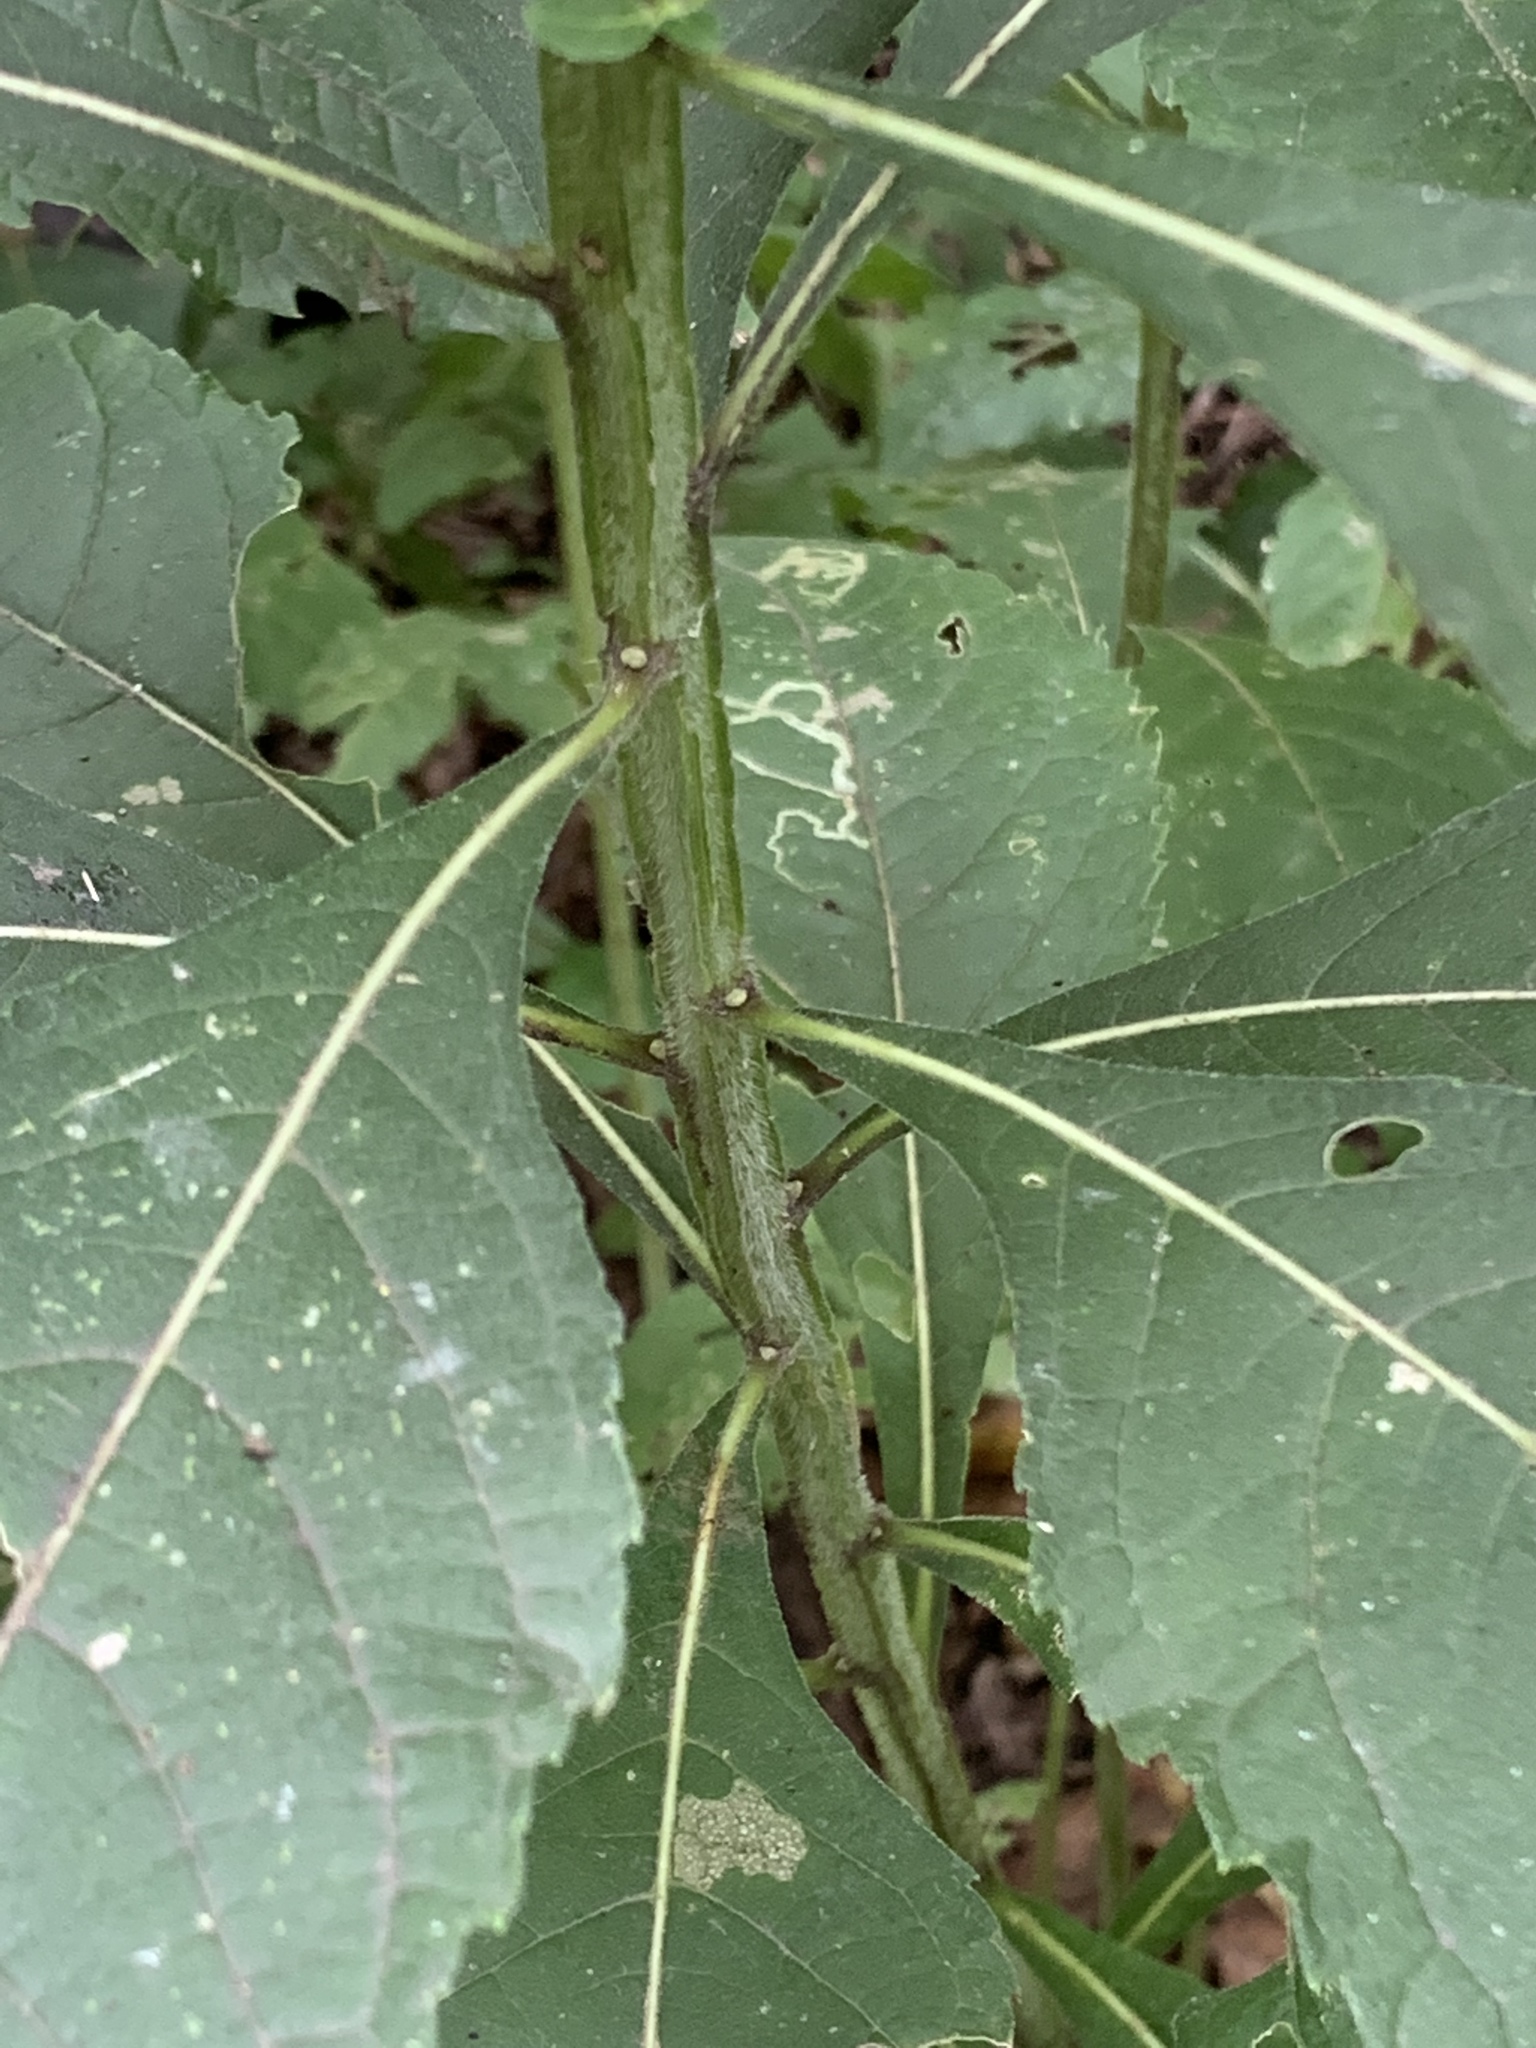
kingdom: Plantae
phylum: Tracheophyta
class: Magnoliopsida
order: Asterales
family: Asteraceae
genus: Verbesina
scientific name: Verbesina alternifolia
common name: Wingstem
